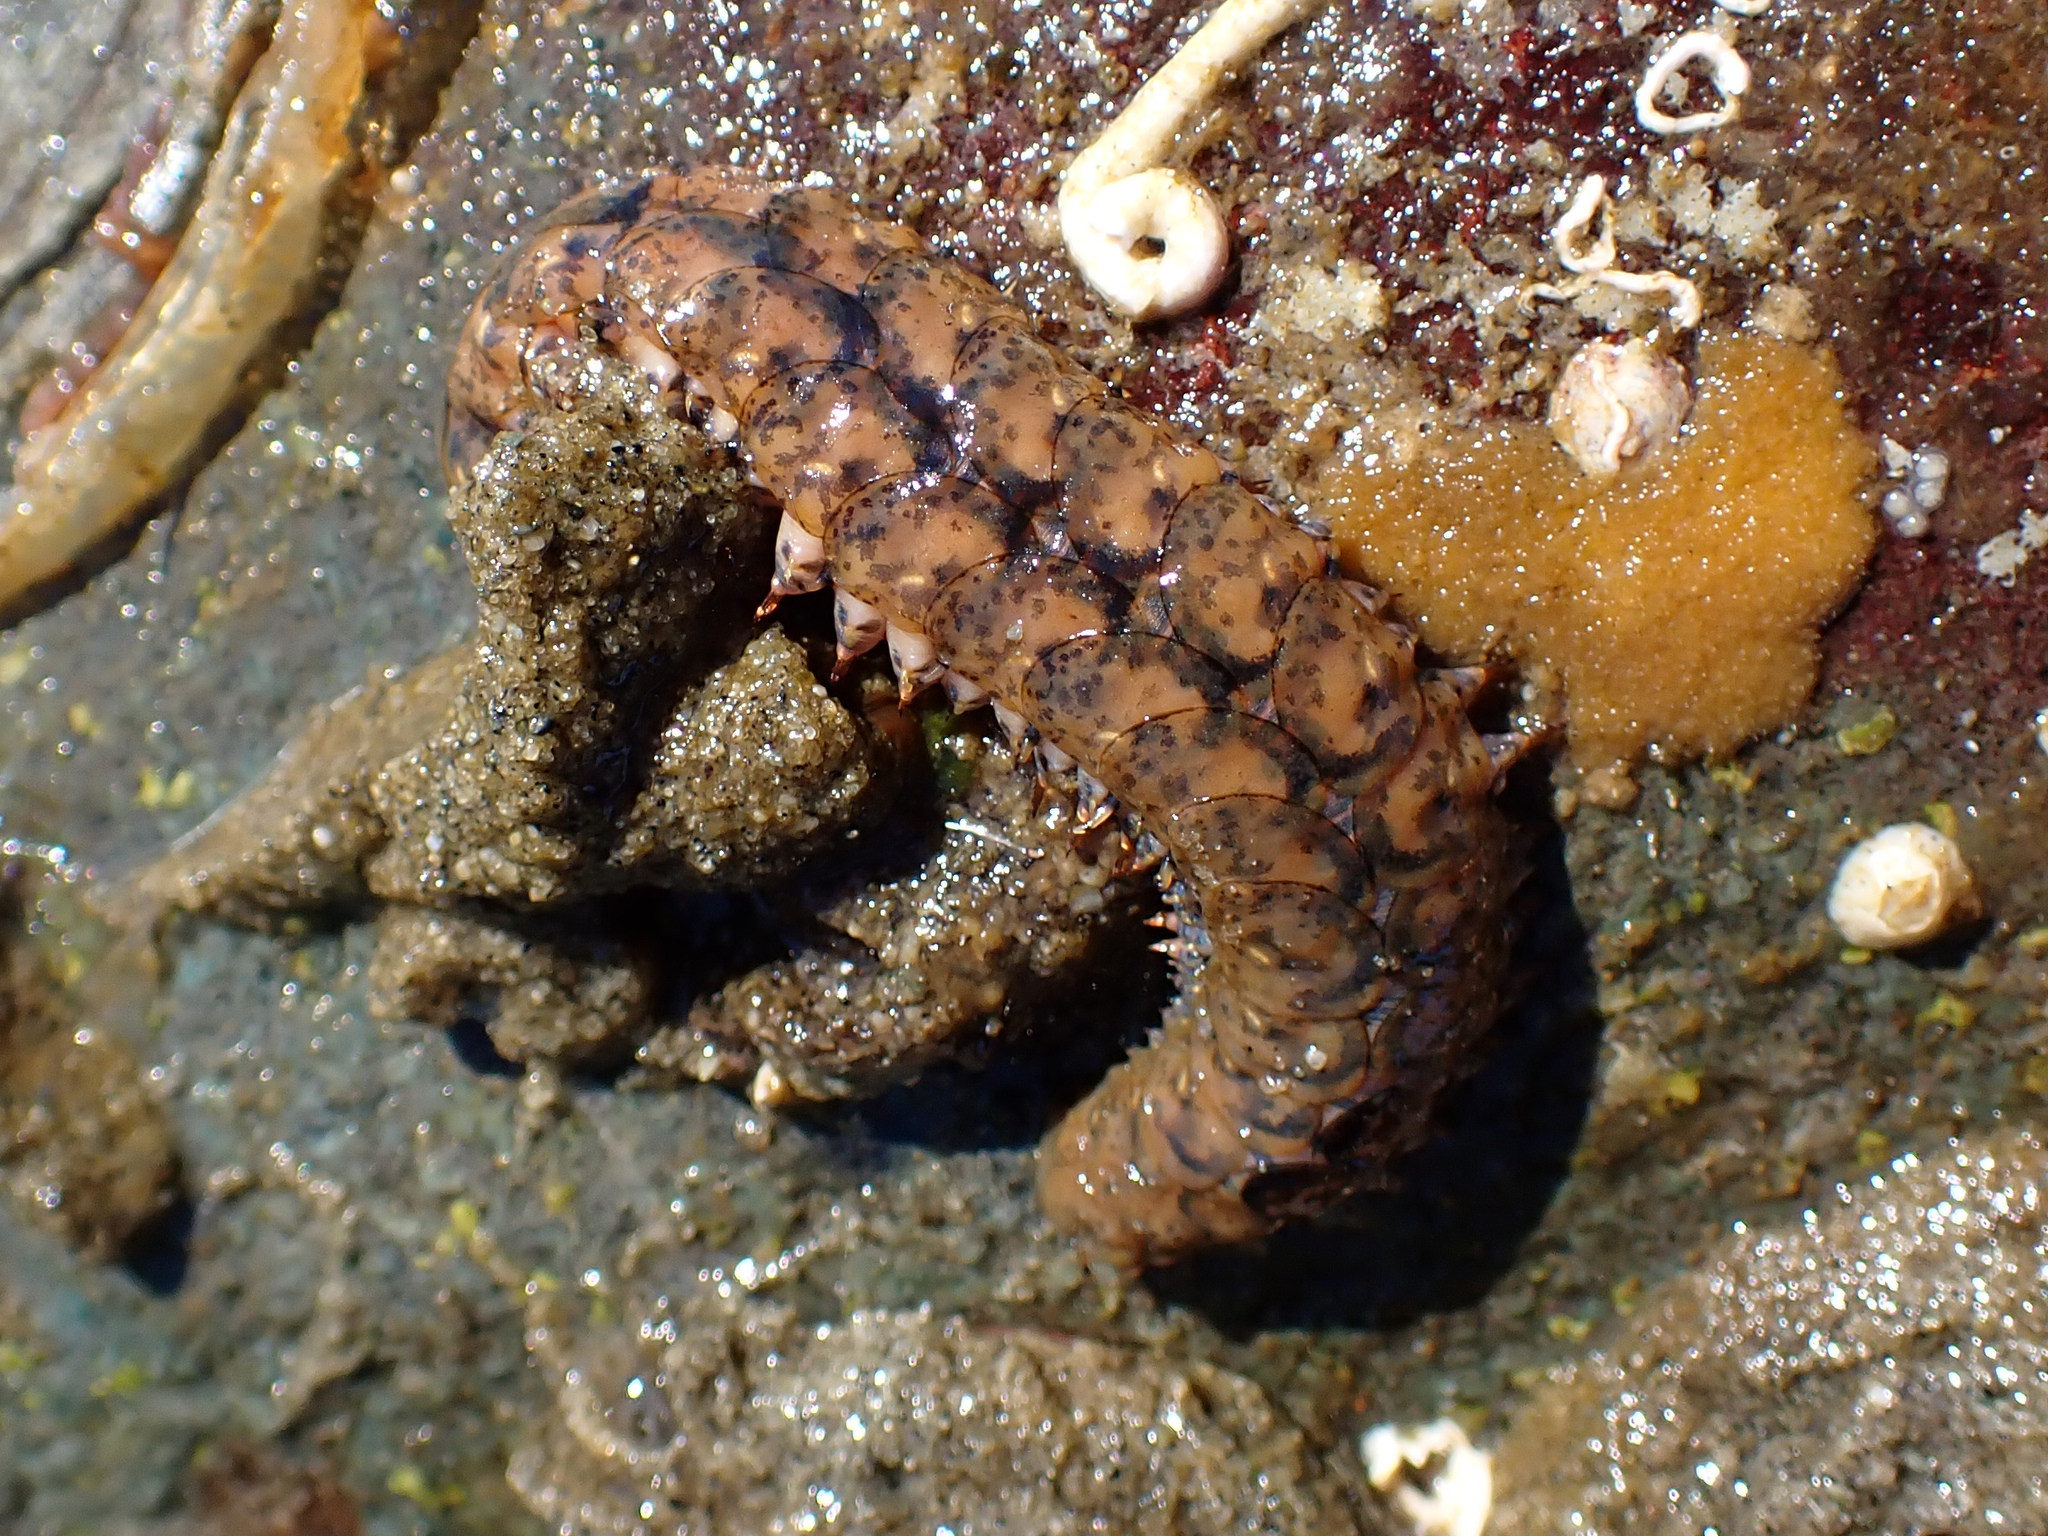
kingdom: Animalia
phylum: Annelida
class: Polychaeta
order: Phyllodocida
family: Polynoidae
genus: Halosydna
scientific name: Halosydna brevisetosa
